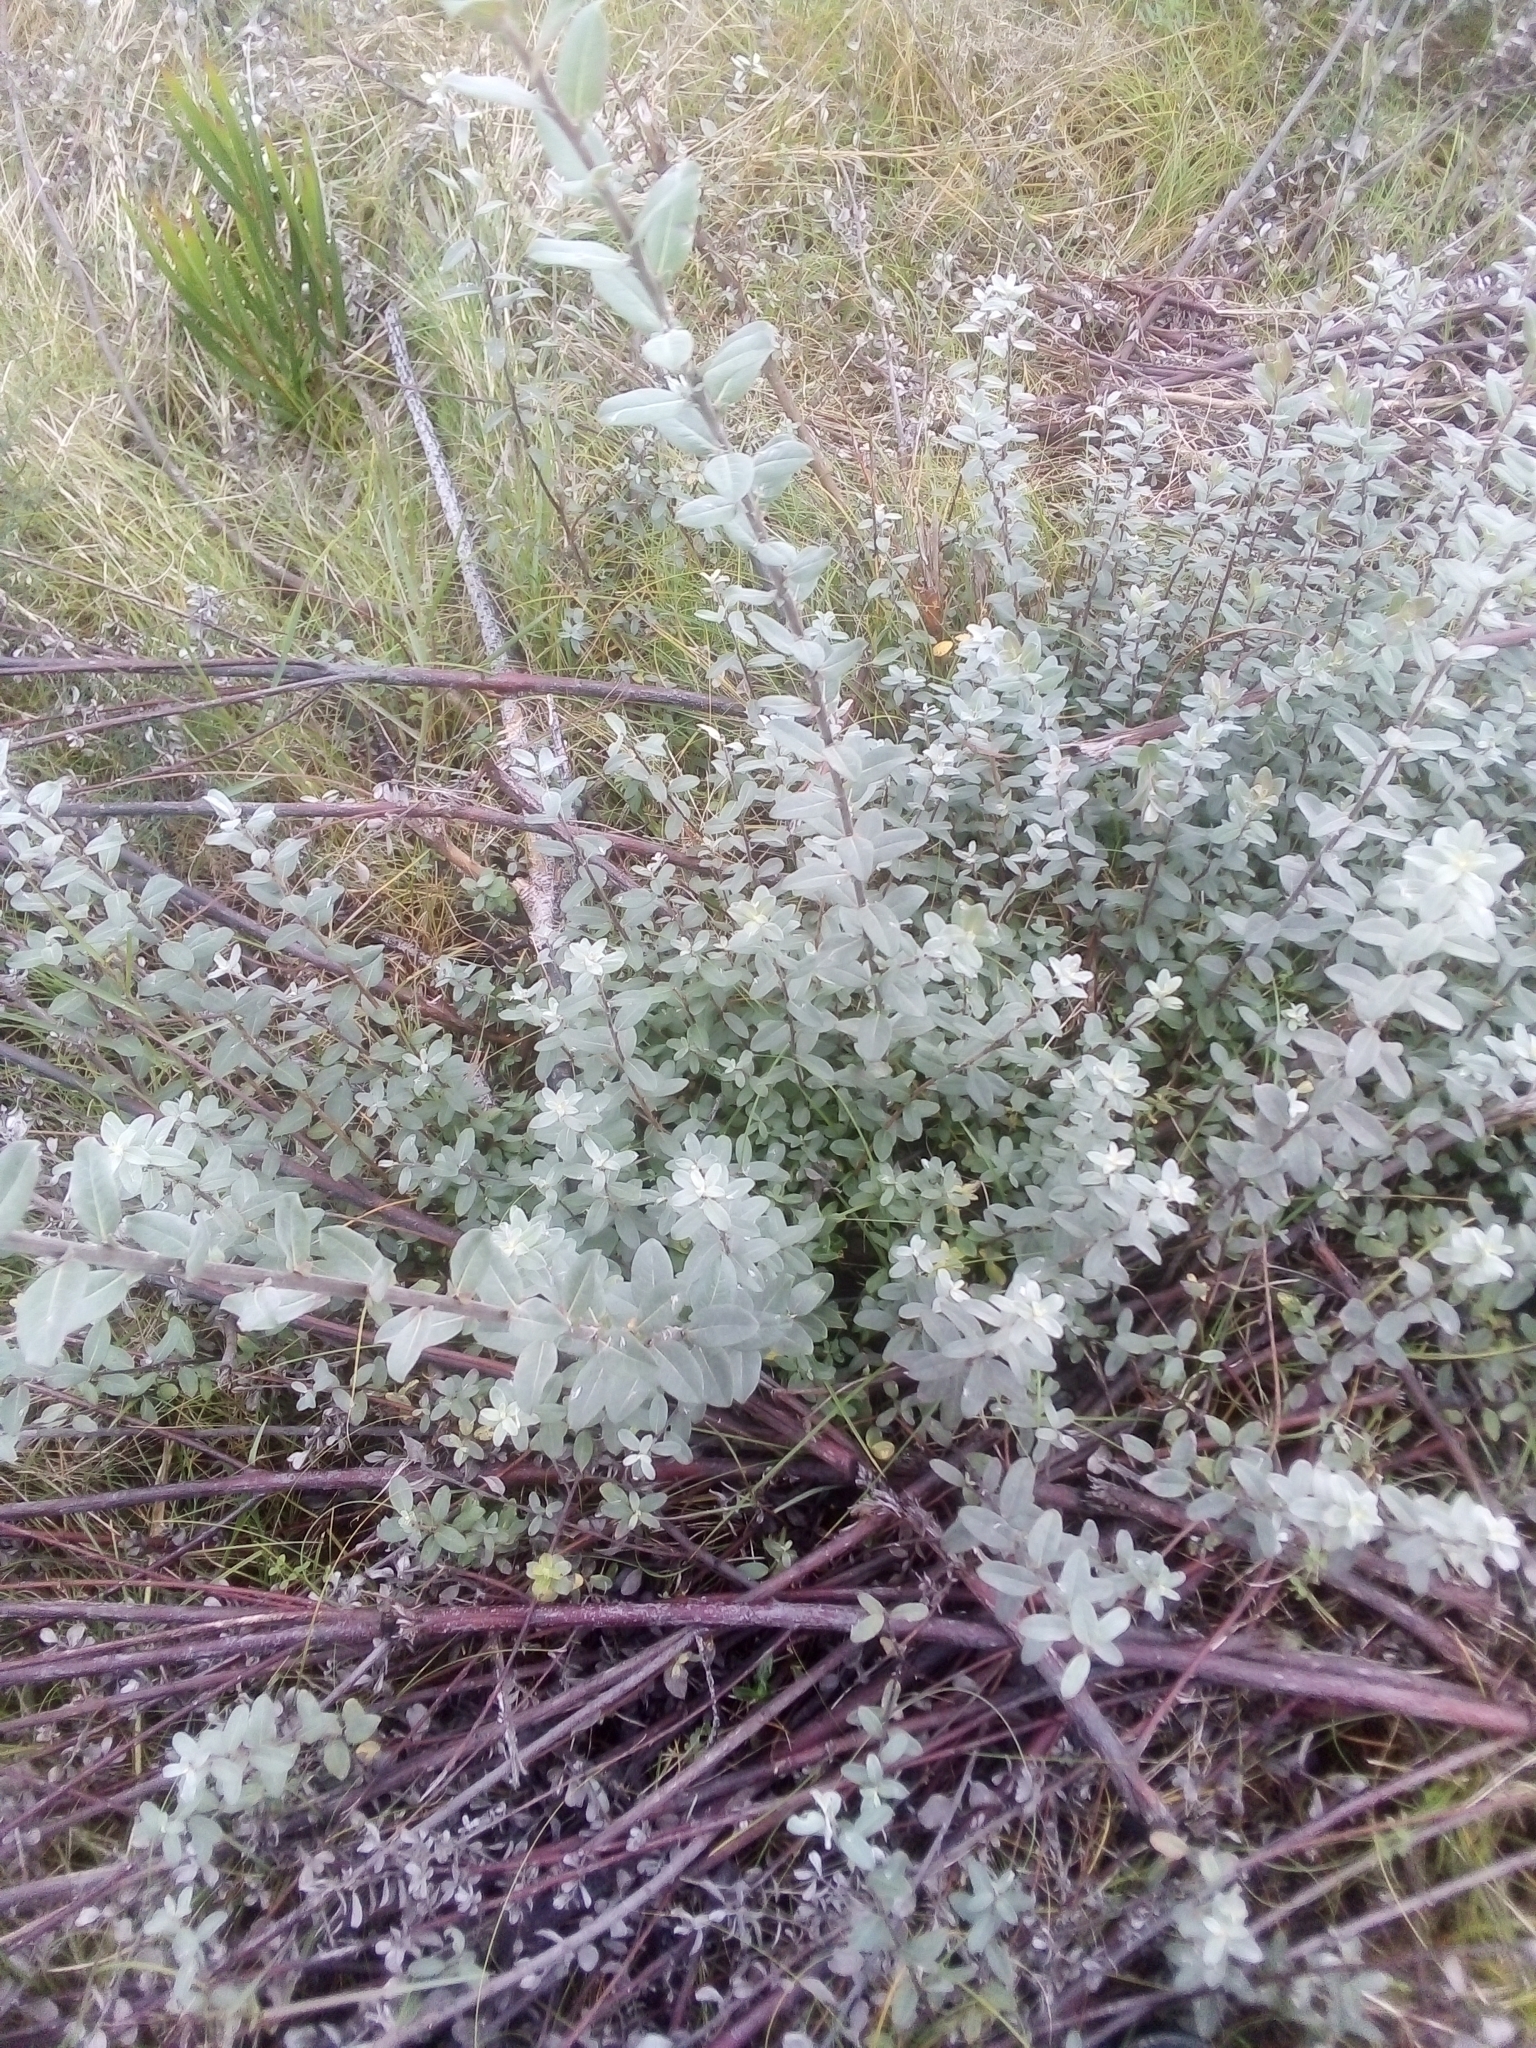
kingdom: Plantae
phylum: Tracheophyta
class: Magnoliopsida
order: Malpighiales
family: Salicaceae
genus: Salix
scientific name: Salix repens
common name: Creeping willow
